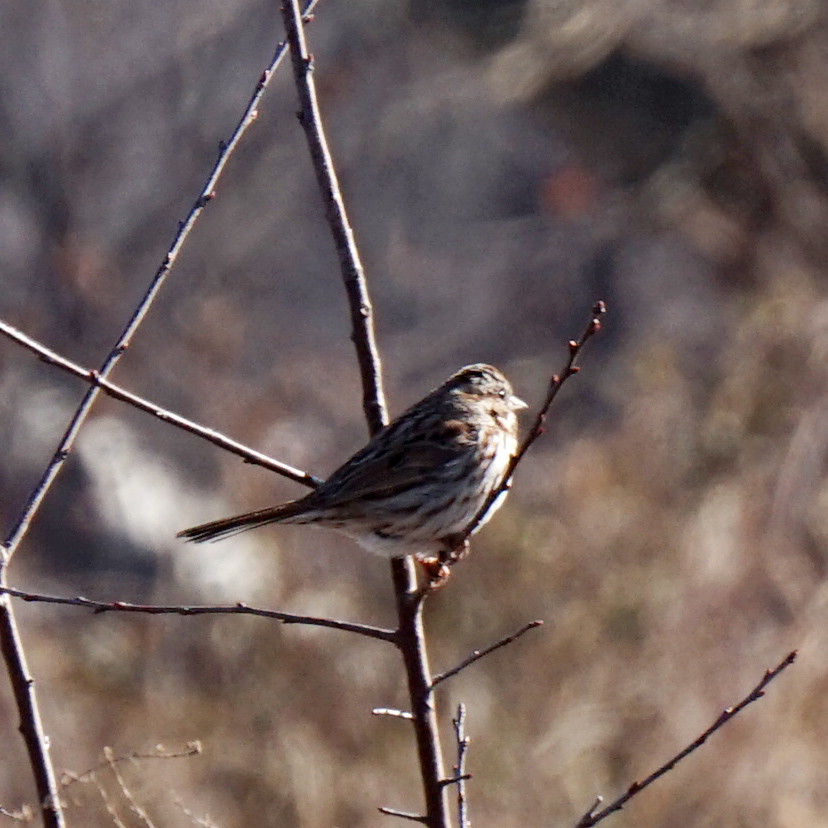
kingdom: Animalia
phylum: Chordata
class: Aves
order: Passeriformes
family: Passerellidae
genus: Melospiza
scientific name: Melospiza melodia
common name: Song sparrow
